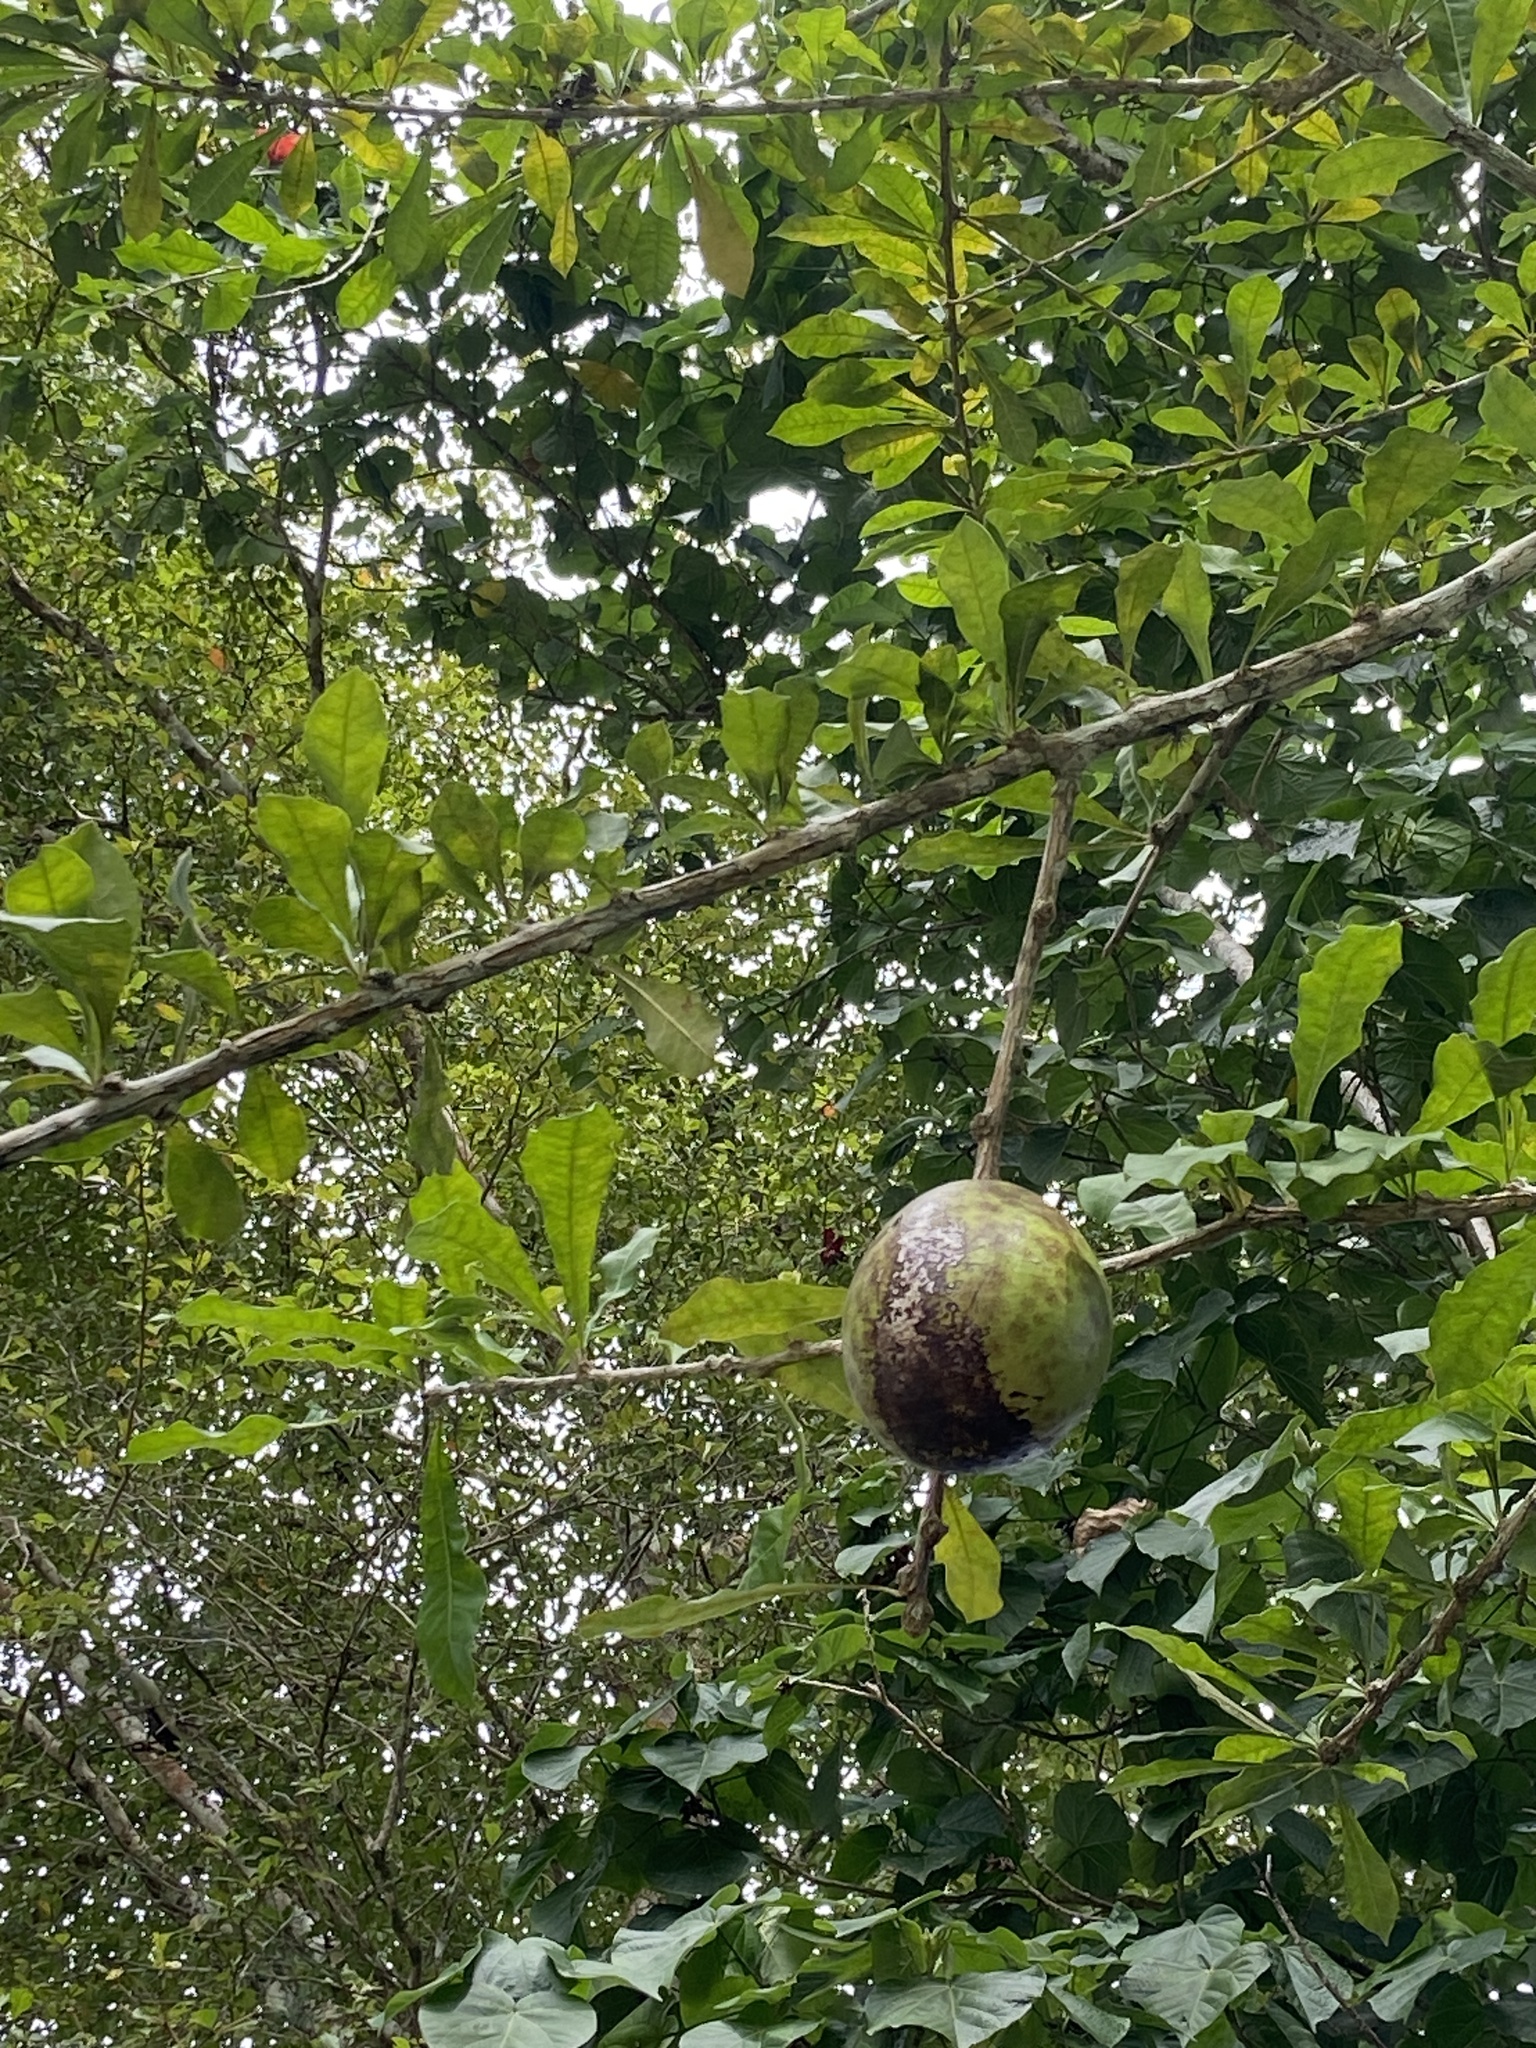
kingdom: Plantae
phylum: Tracheophyta
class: Magnoliopsida
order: Lamiales
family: Bignoniaceae
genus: Crescentia
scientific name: Crescentia cujete
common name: Calabash
